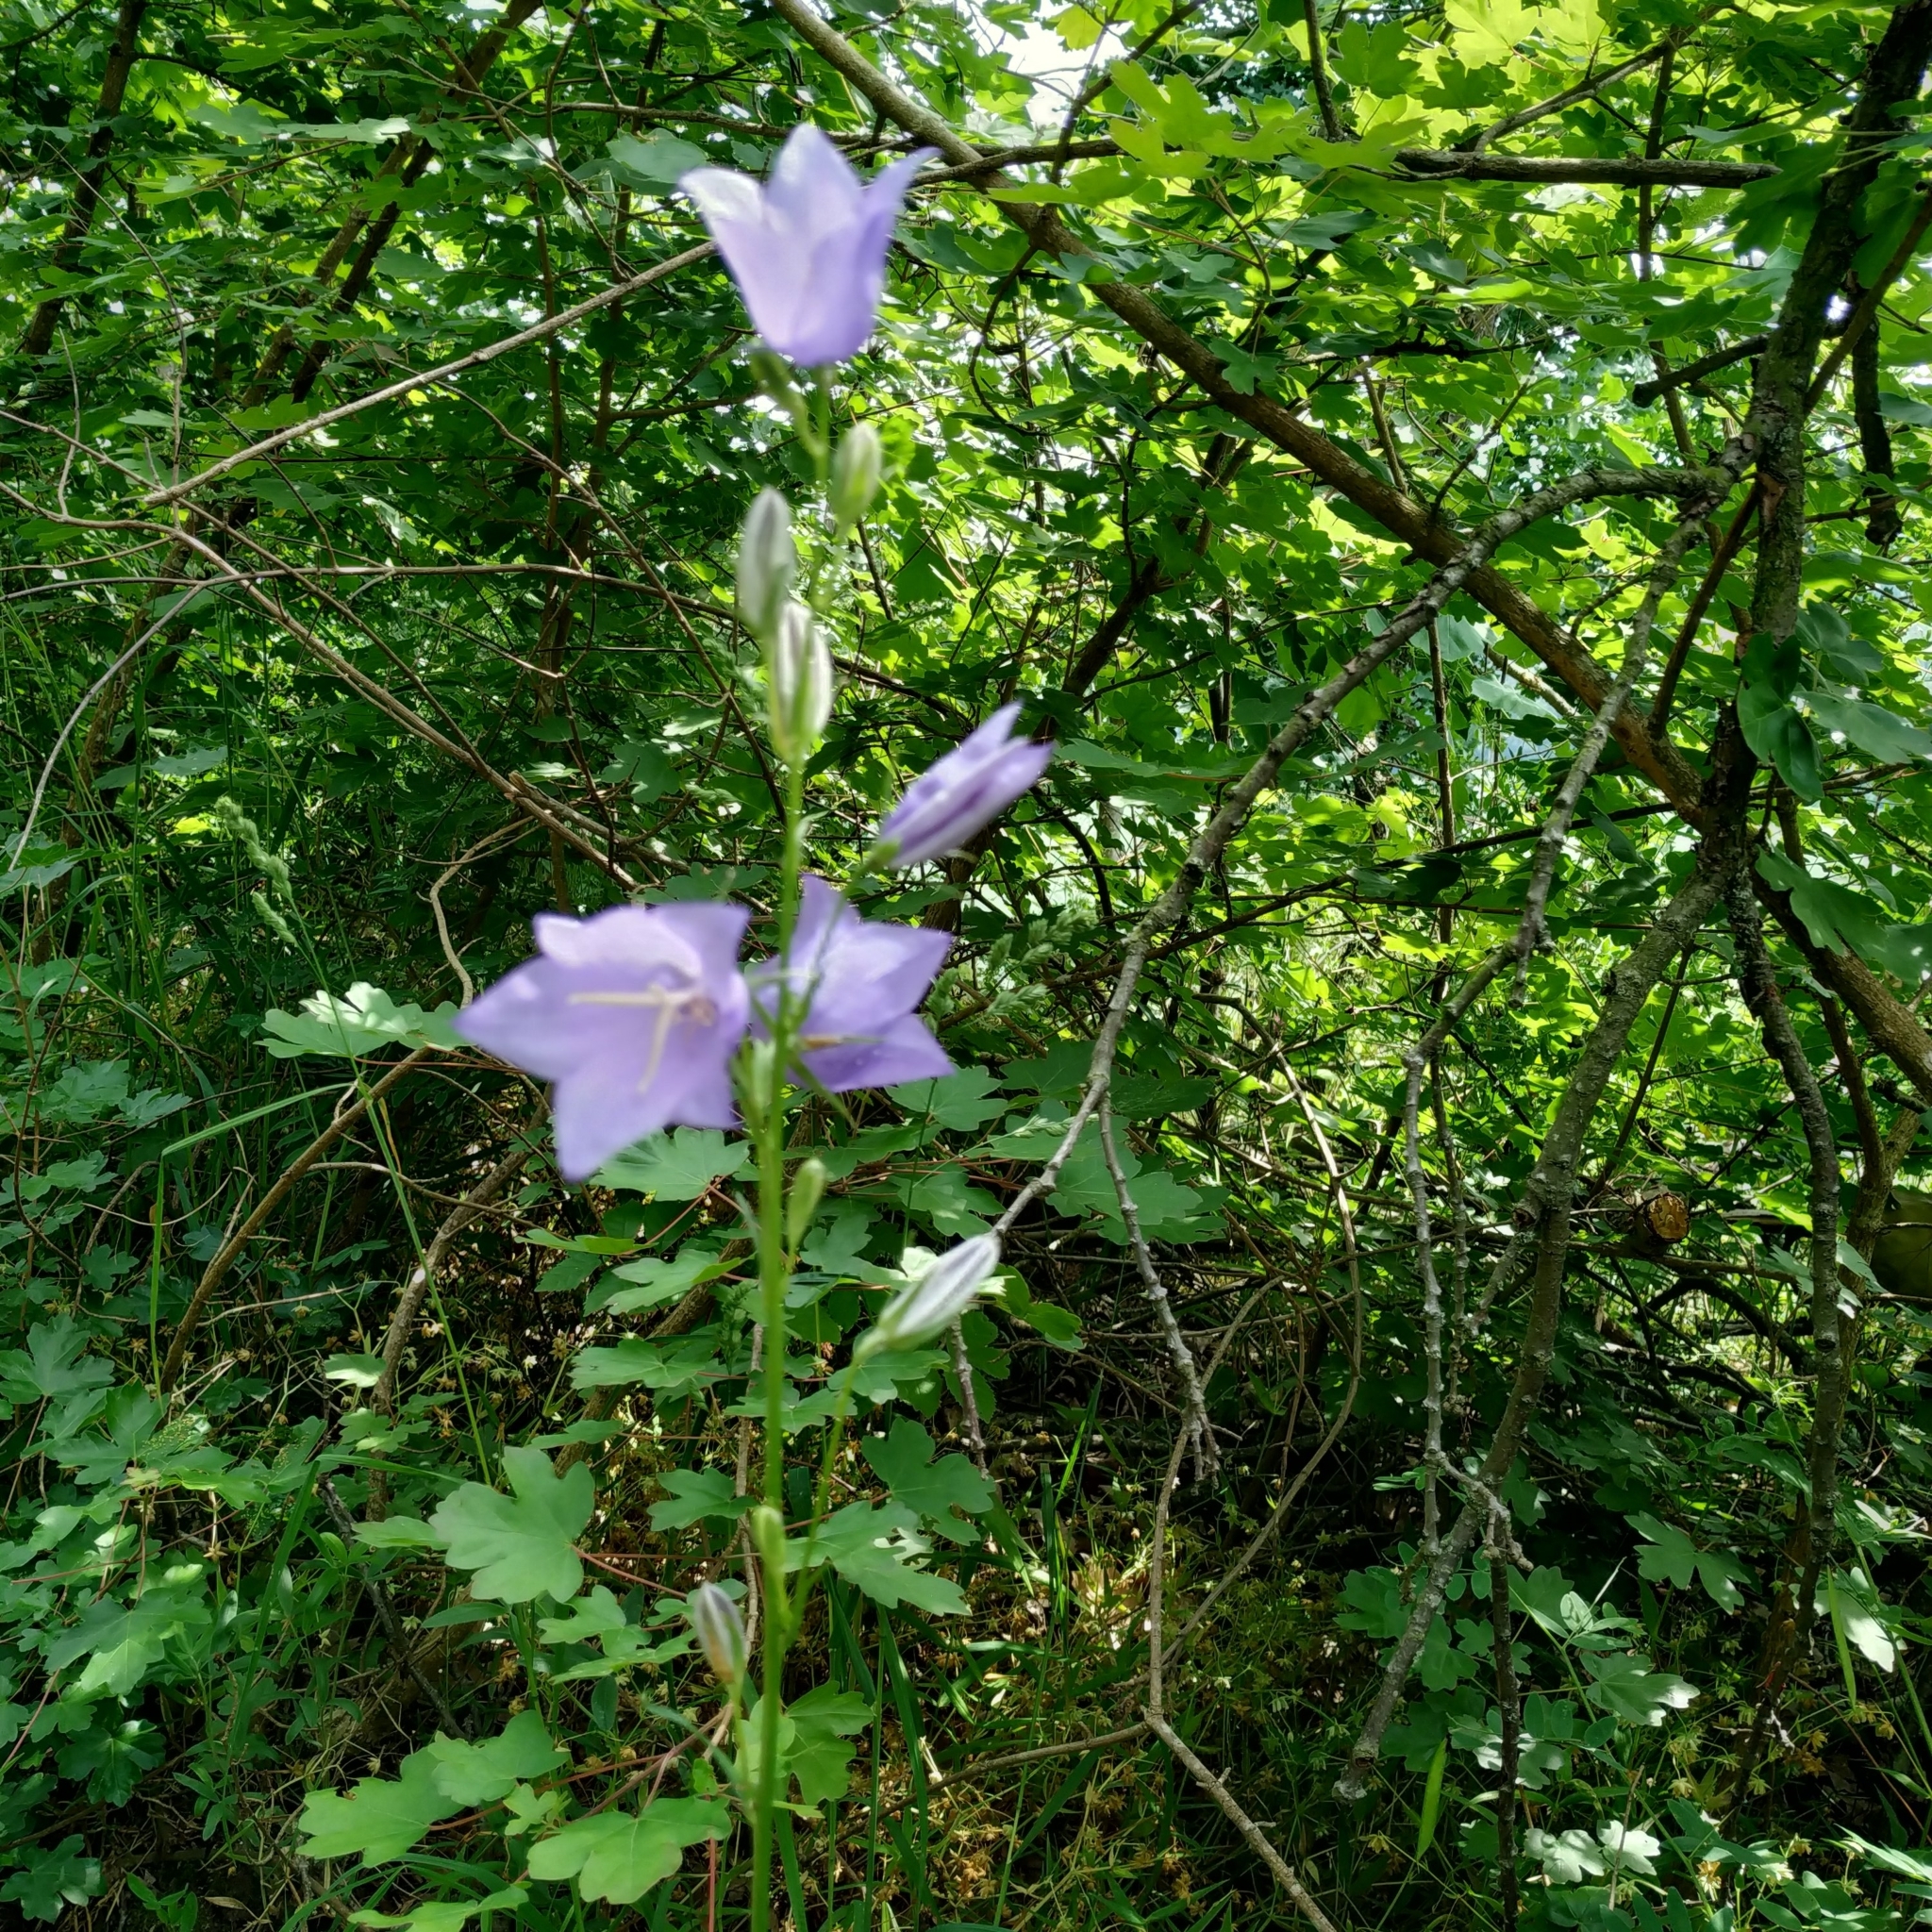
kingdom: Plantae
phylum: Tracheophyta
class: Magnoliopsida
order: Asterales
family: Campanulaceae
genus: Campanula
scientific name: Campanula persicifolia
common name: Peach-leaved bellflower
